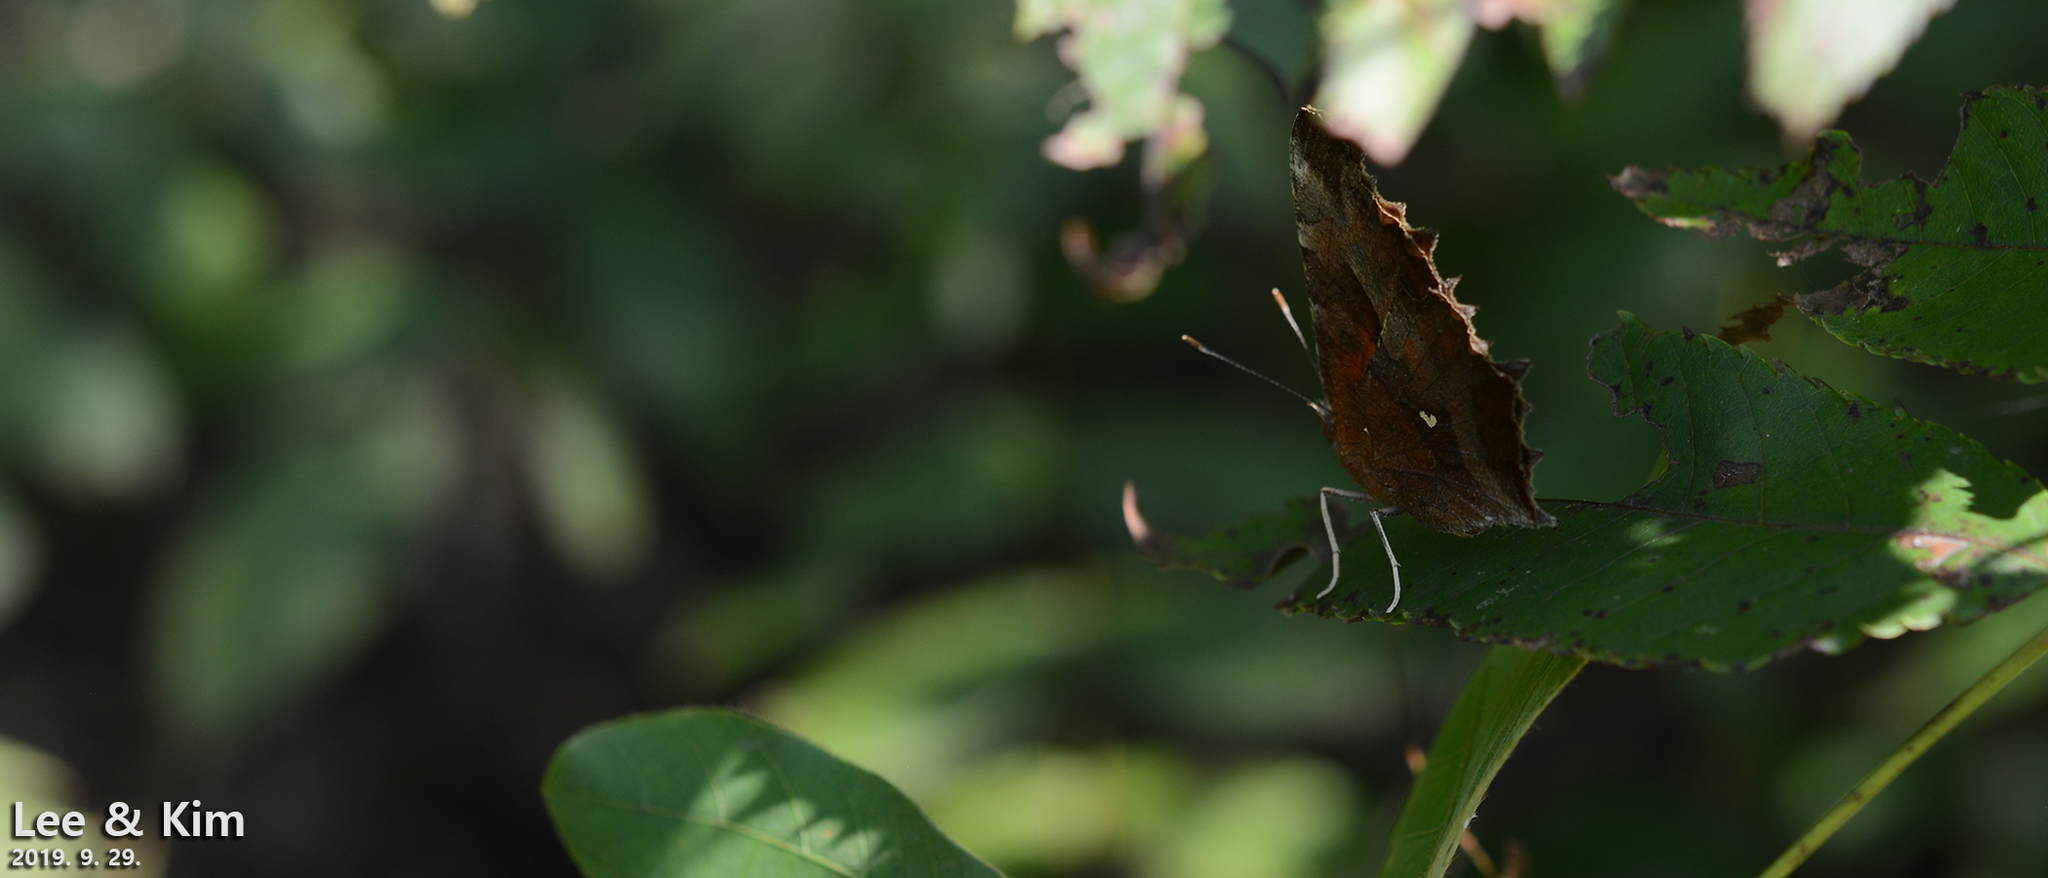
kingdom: Animalia
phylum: Arthropoda
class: Insecta
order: Lepidoptera
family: Nymphalidae
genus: Polygonia
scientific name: Polygonia c-aureum
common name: Asian comma
